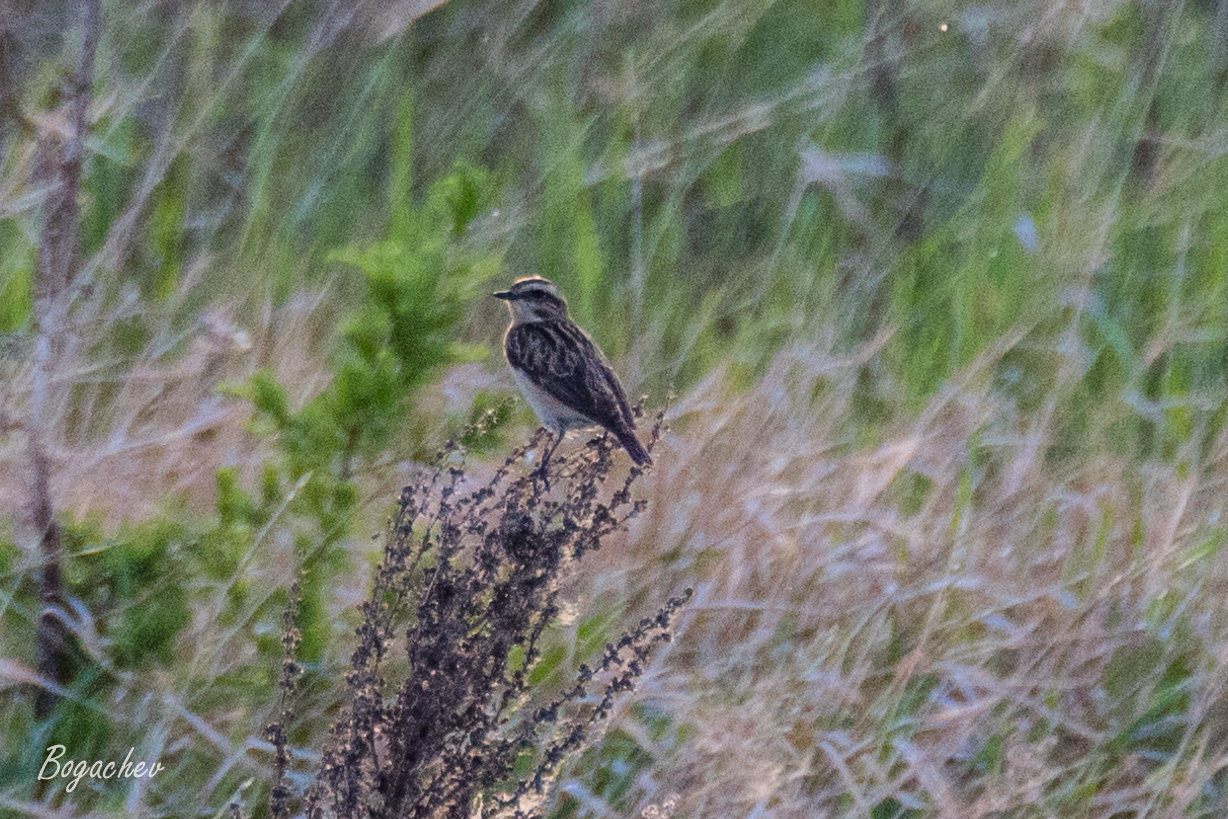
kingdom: Animalia
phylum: Chordata
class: Aves
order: Passeriformes
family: Muscicapidae
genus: Saxicola
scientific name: Saxicola rubetra
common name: Whinchat
